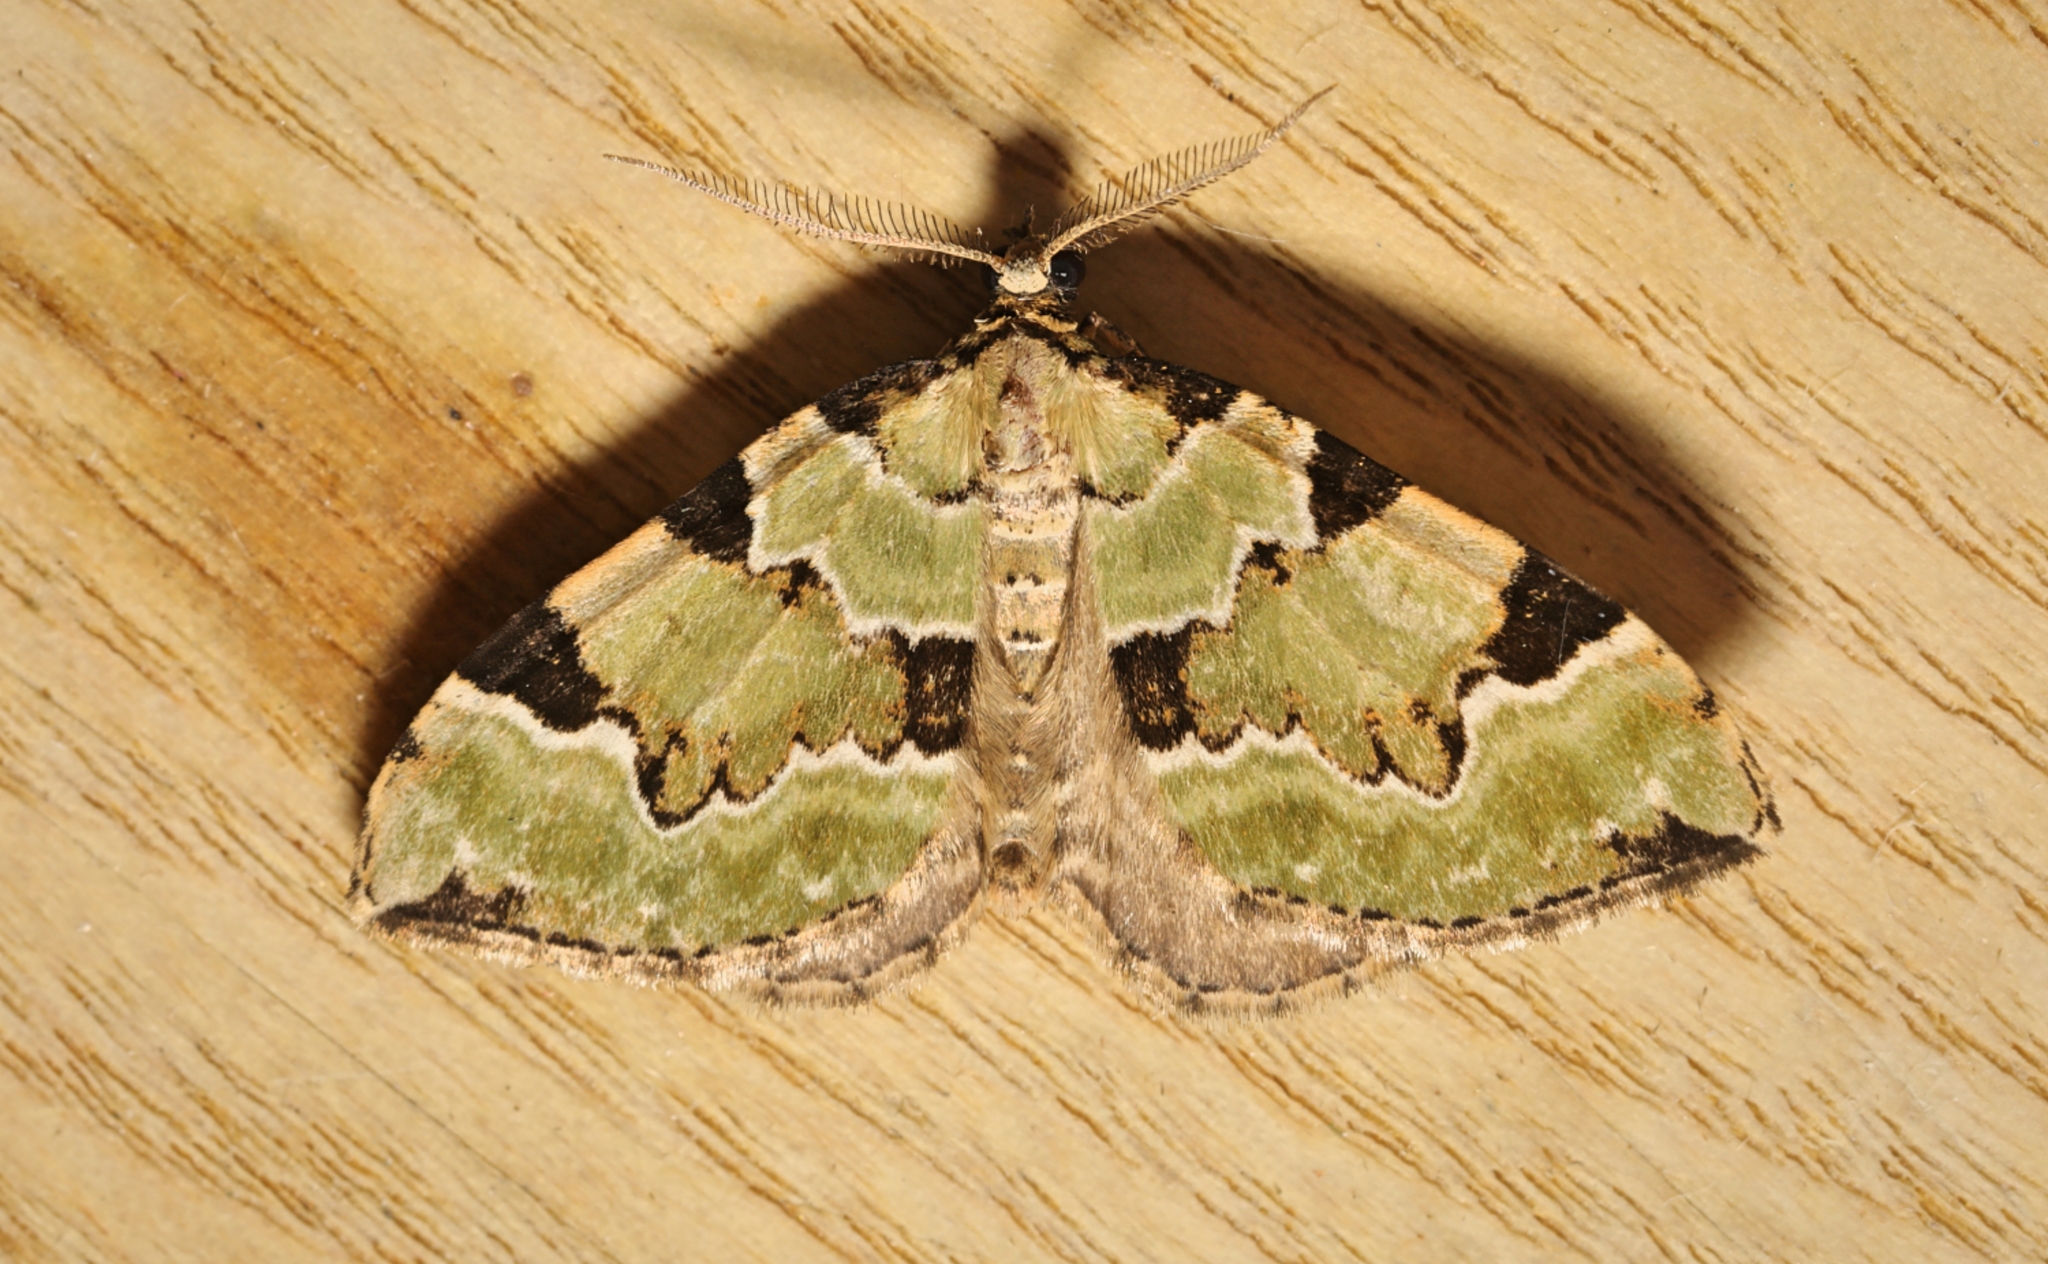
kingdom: Animalia
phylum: Arthropoda
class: Insecta
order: Lepidoptera
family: Geometridae
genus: Colostygia
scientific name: Colostygia pectinataria
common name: Green carpet
